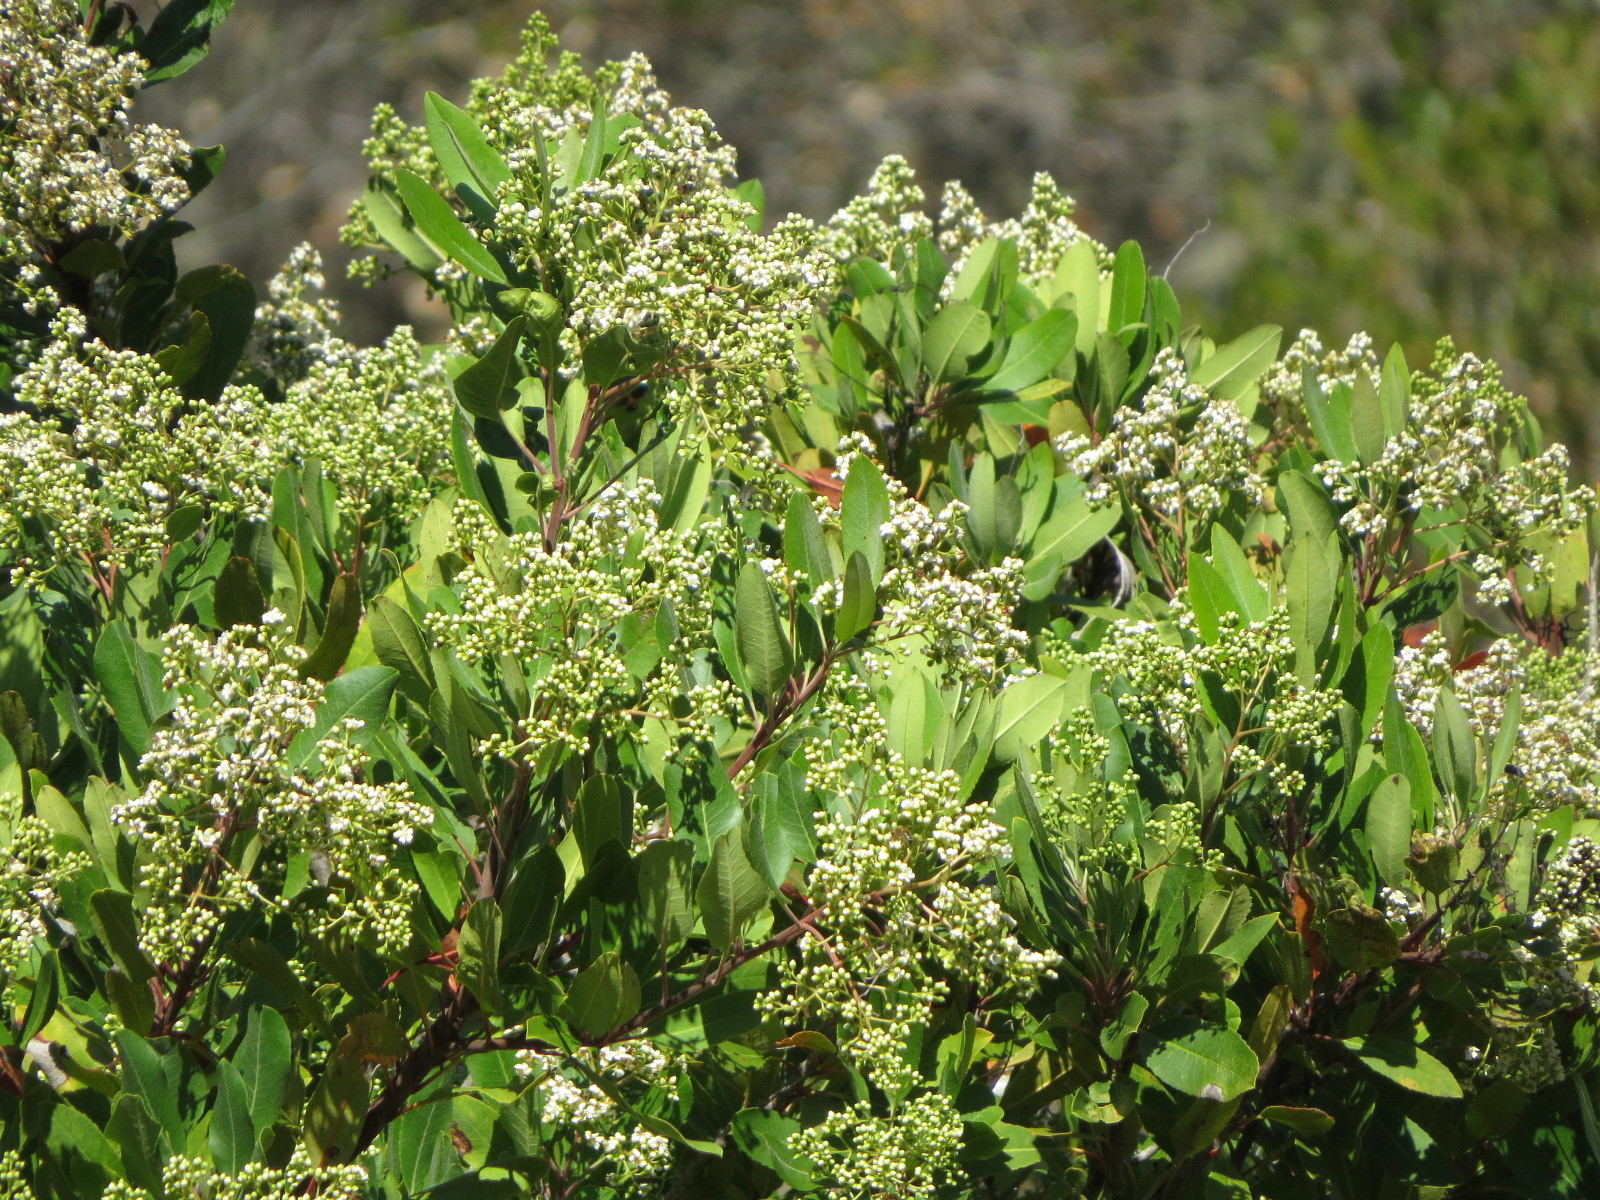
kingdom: Plantae
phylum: Tracheophyta
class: Magnoliopsida
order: Rosales
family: Rosaceae
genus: Heteromeles
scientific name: Heteromeles arbutifolia
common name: California-holly
